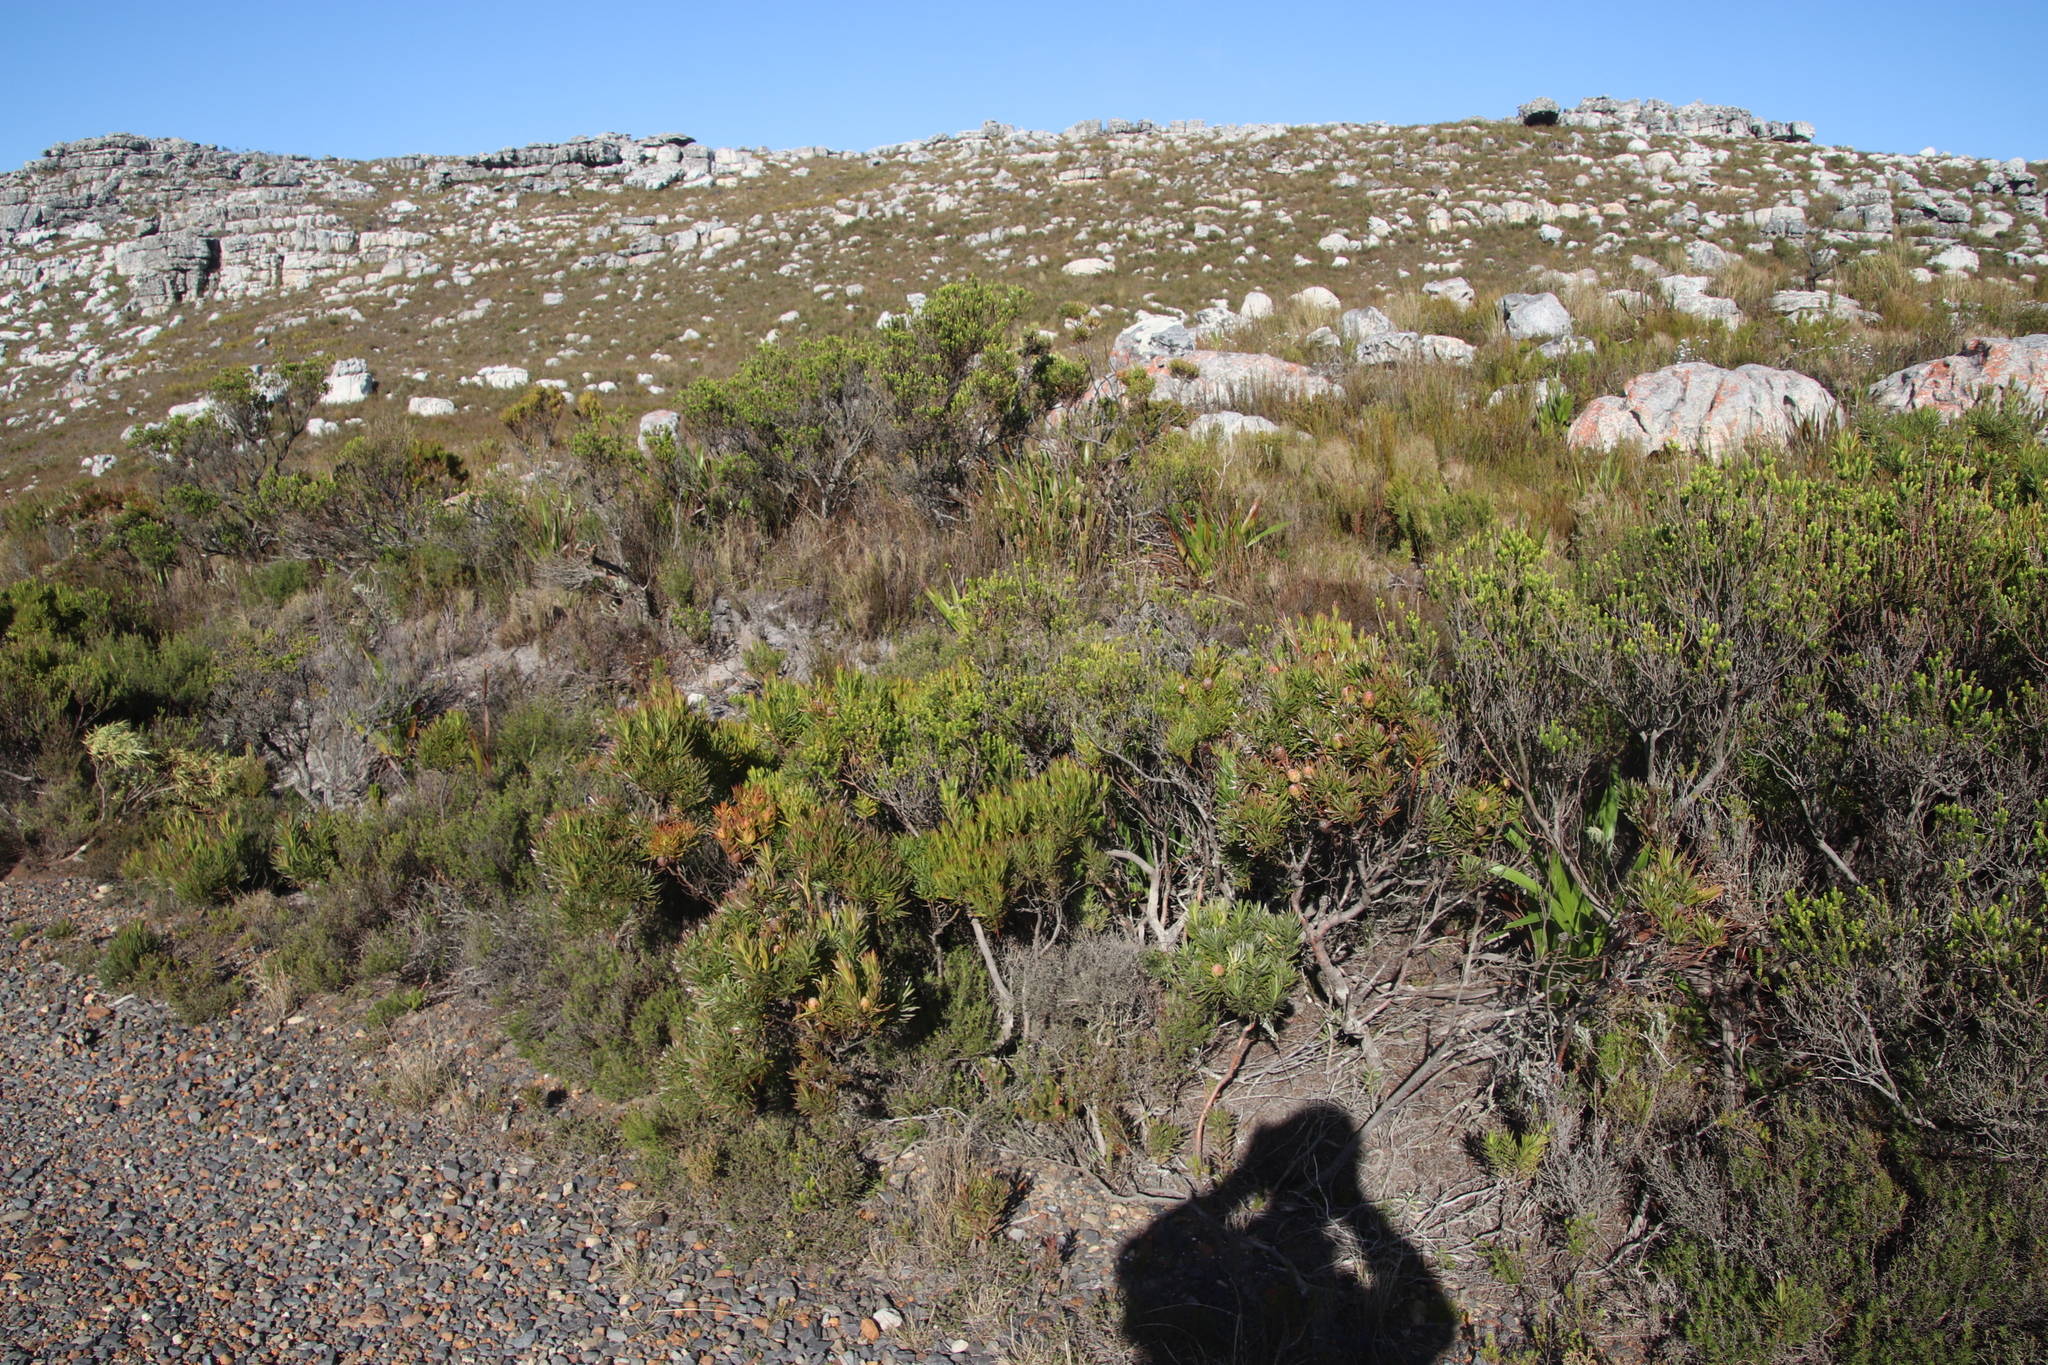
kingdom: Plantae
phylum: Tracheophyta
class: Magnoliopsida
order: Proteales
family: Proteaceae
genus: Leucadendron
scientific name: Leucadendron xanthoconus
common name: Sickle-leaf conebush
